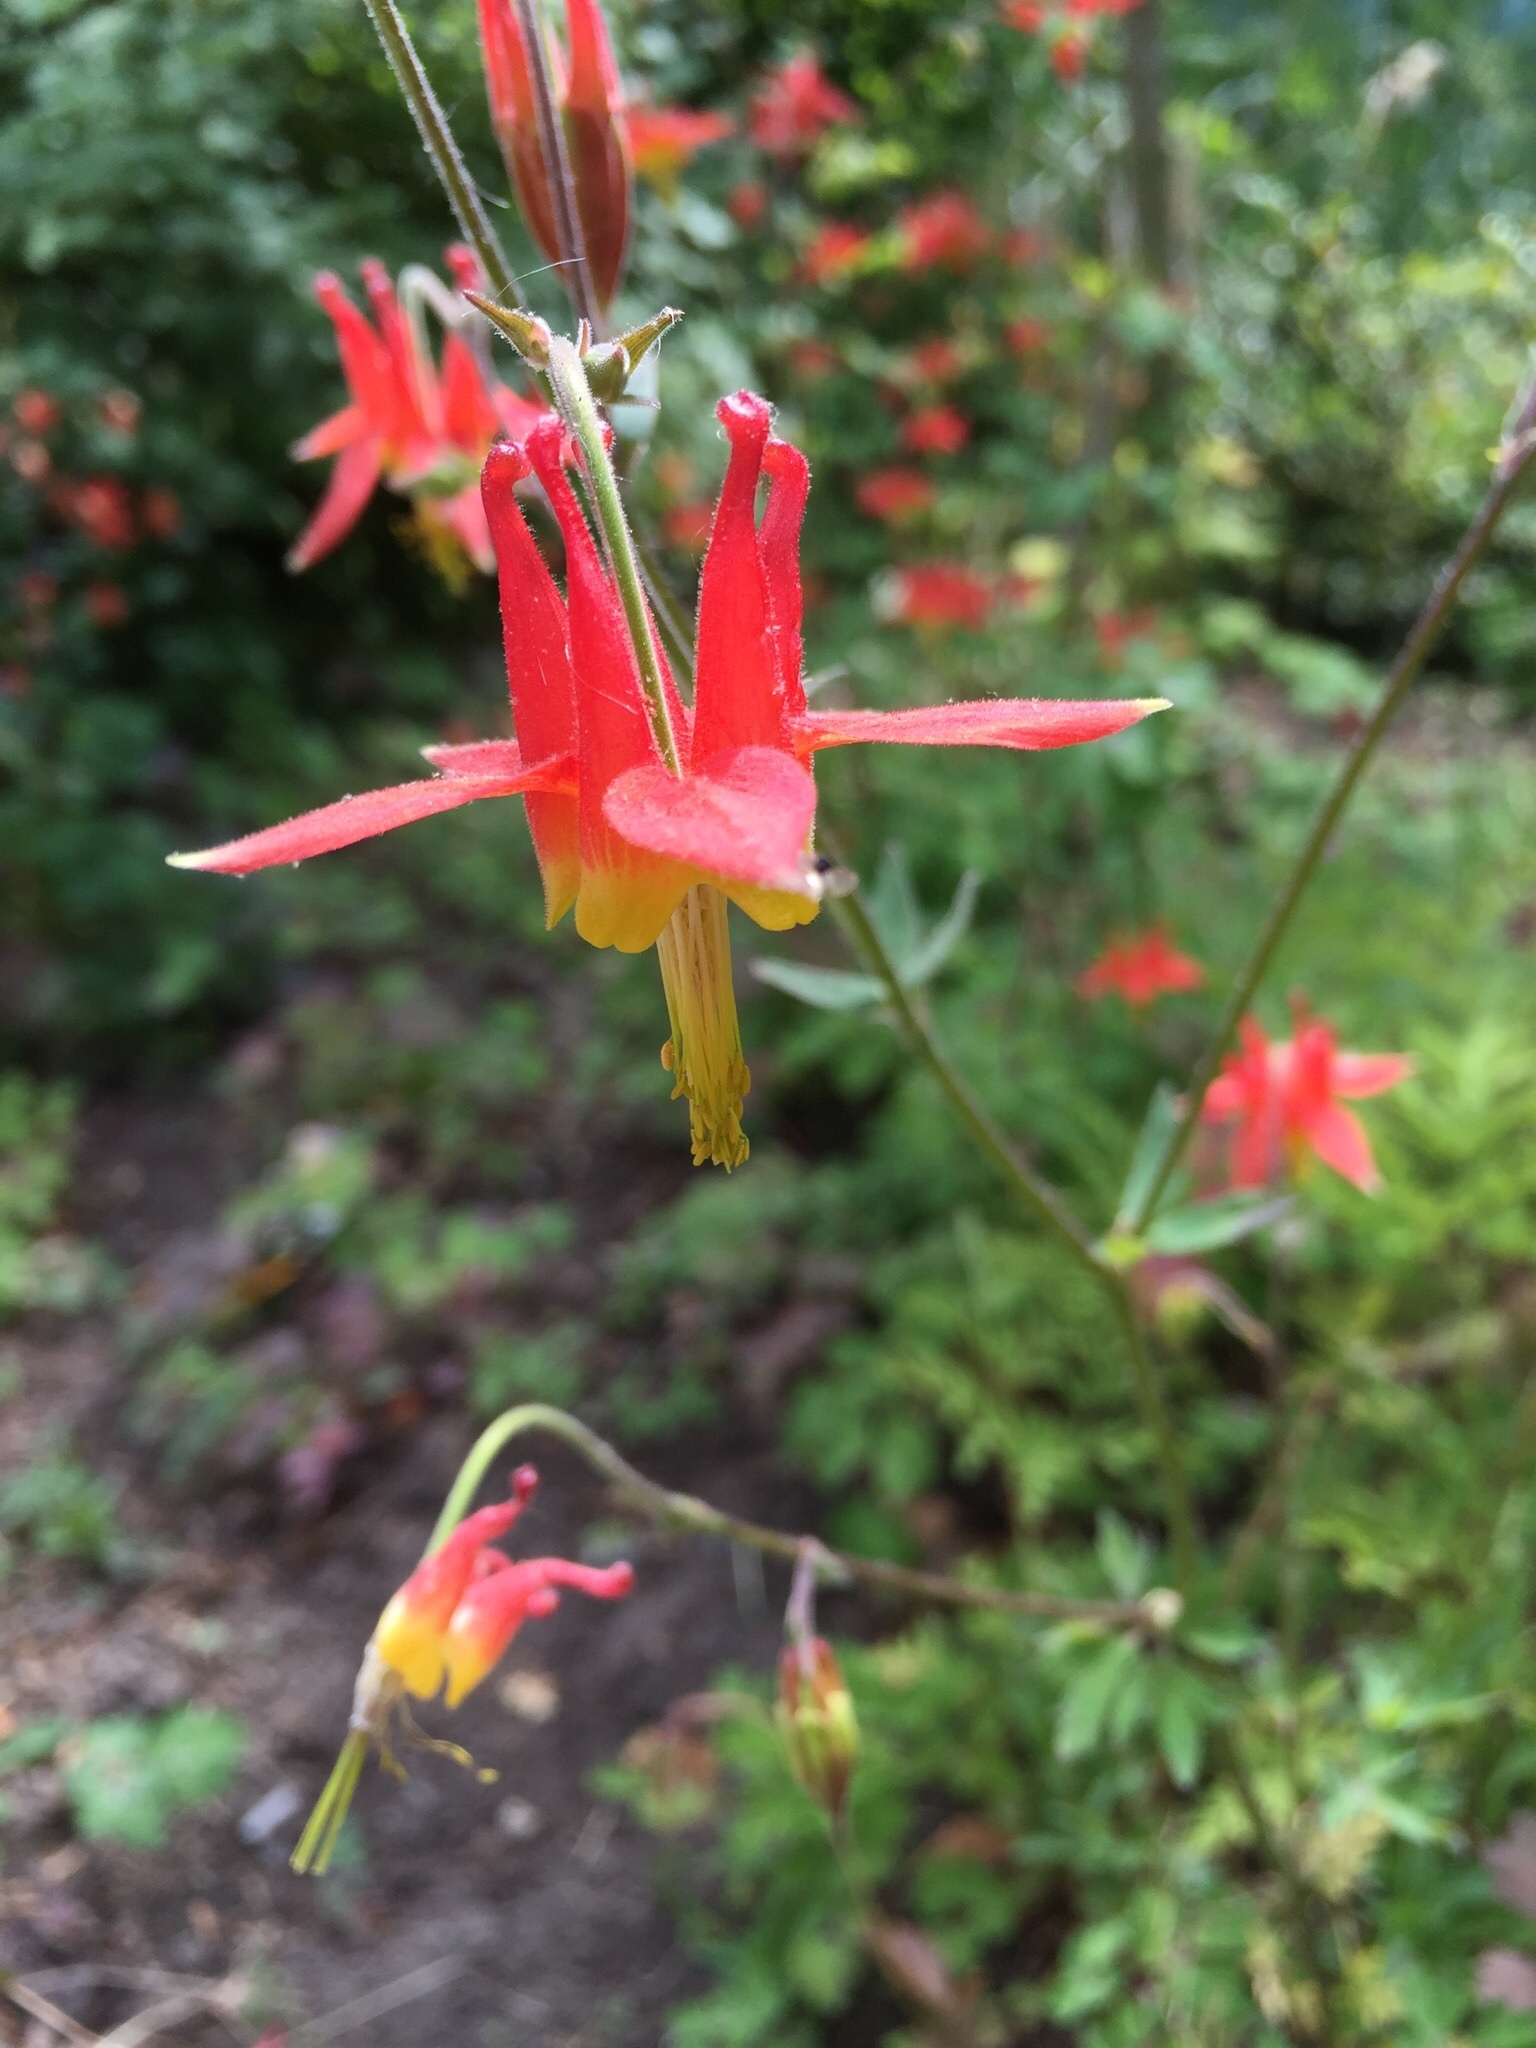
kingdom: Plantae
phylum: Tracheophyta
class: Magnoliopsida
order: Ranunculales
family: Ranunculaceae
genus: Aquilegia
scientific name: Aquilegia formosa
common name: Sitka columbine
